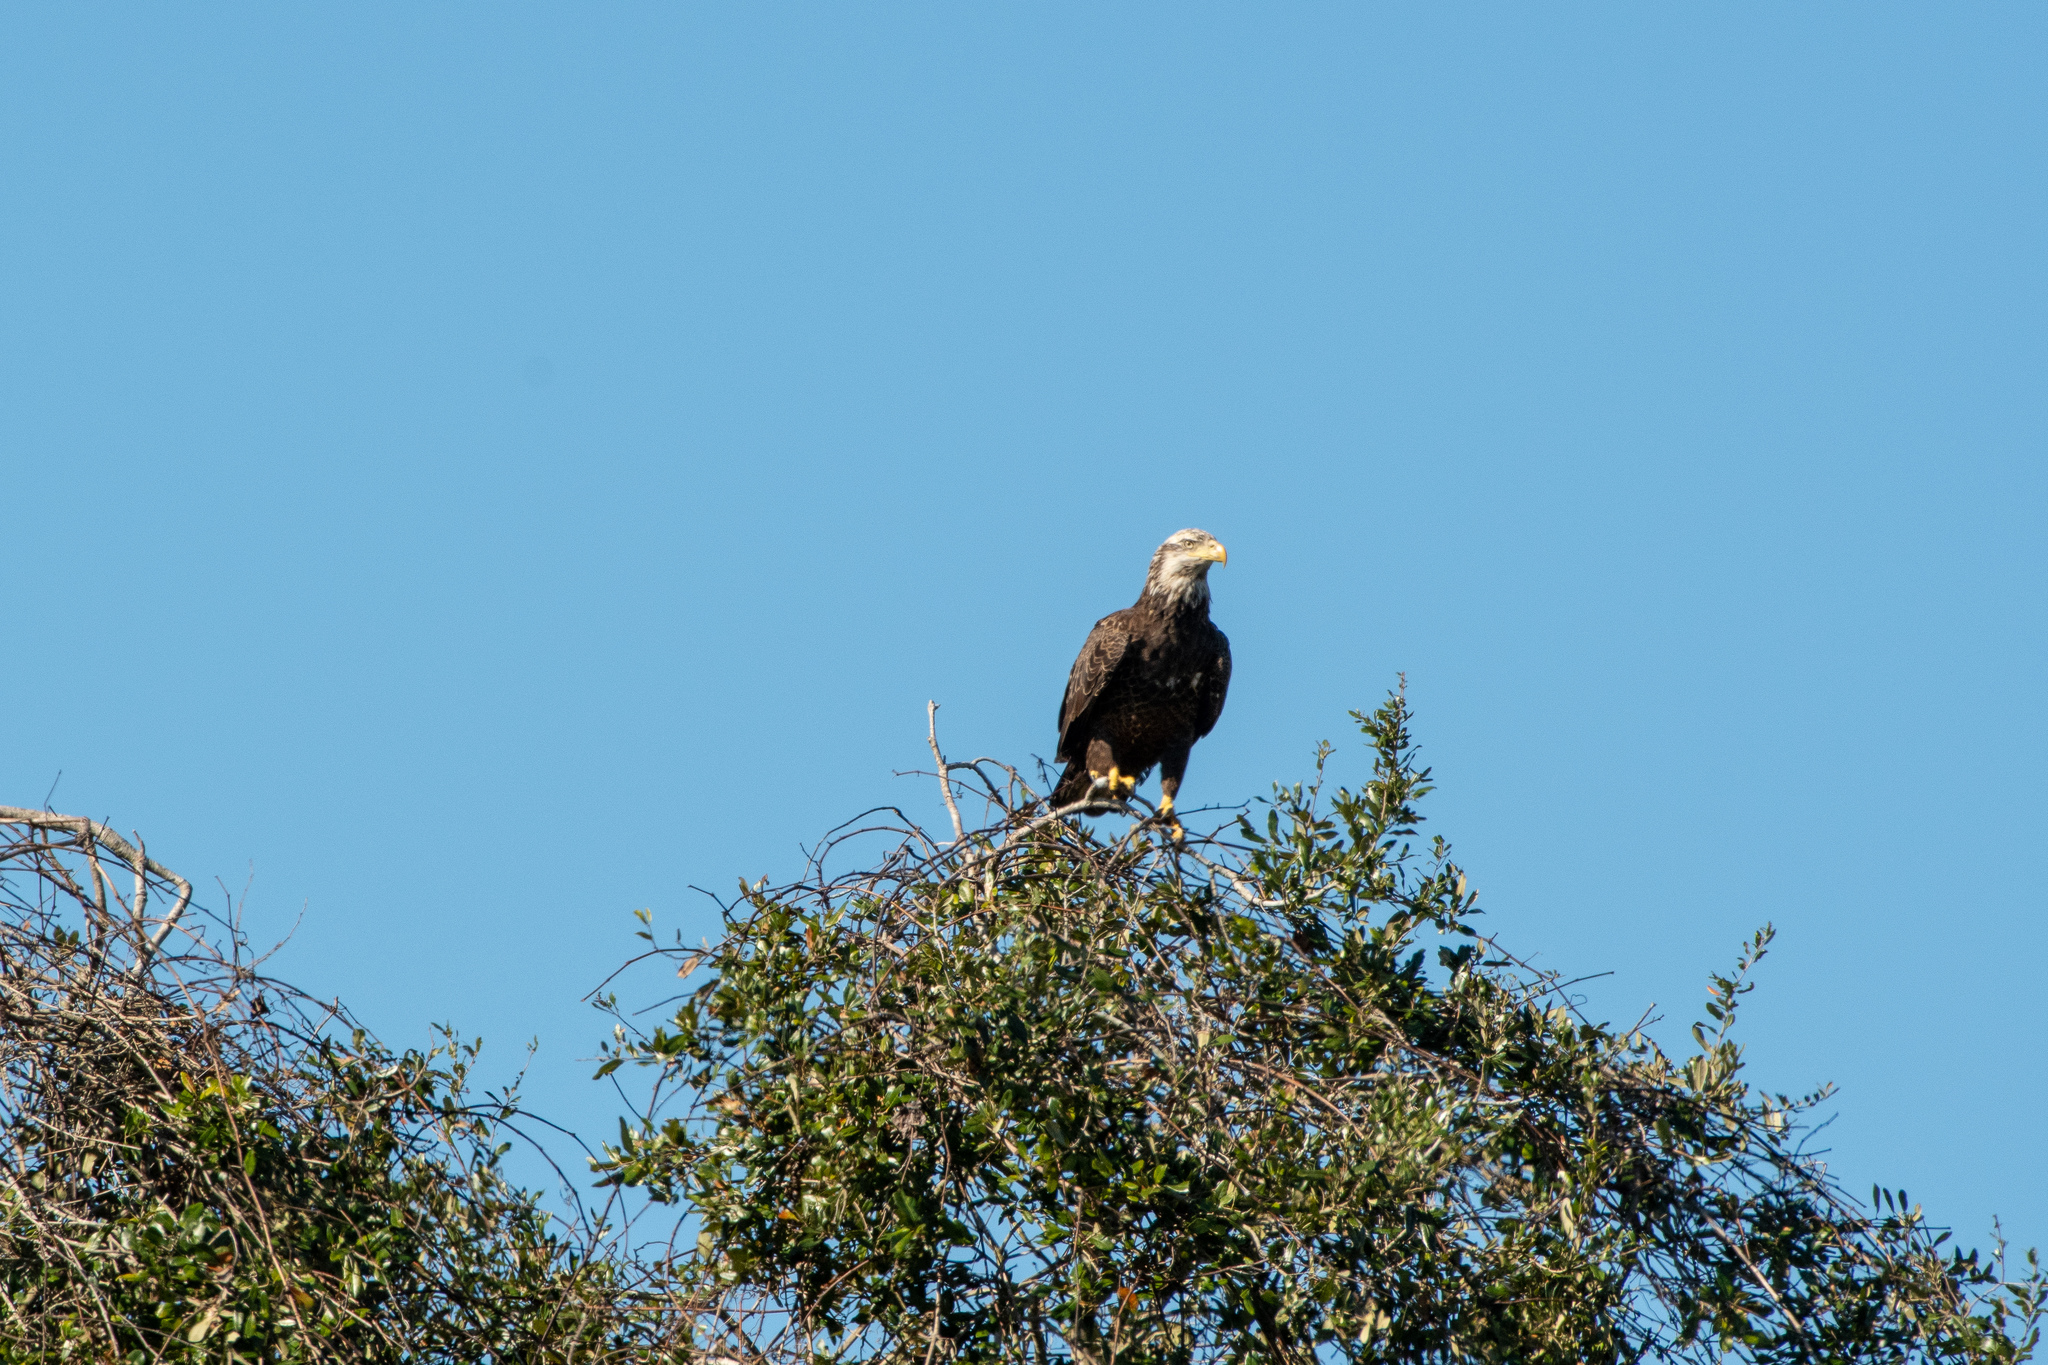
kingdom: Animalia
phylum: Chordata
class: Aves
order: Accipitriformes
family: Accipitridae
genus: Haliaeetus
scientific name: Haliaeetus leucocephalus
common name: Bald eagle
